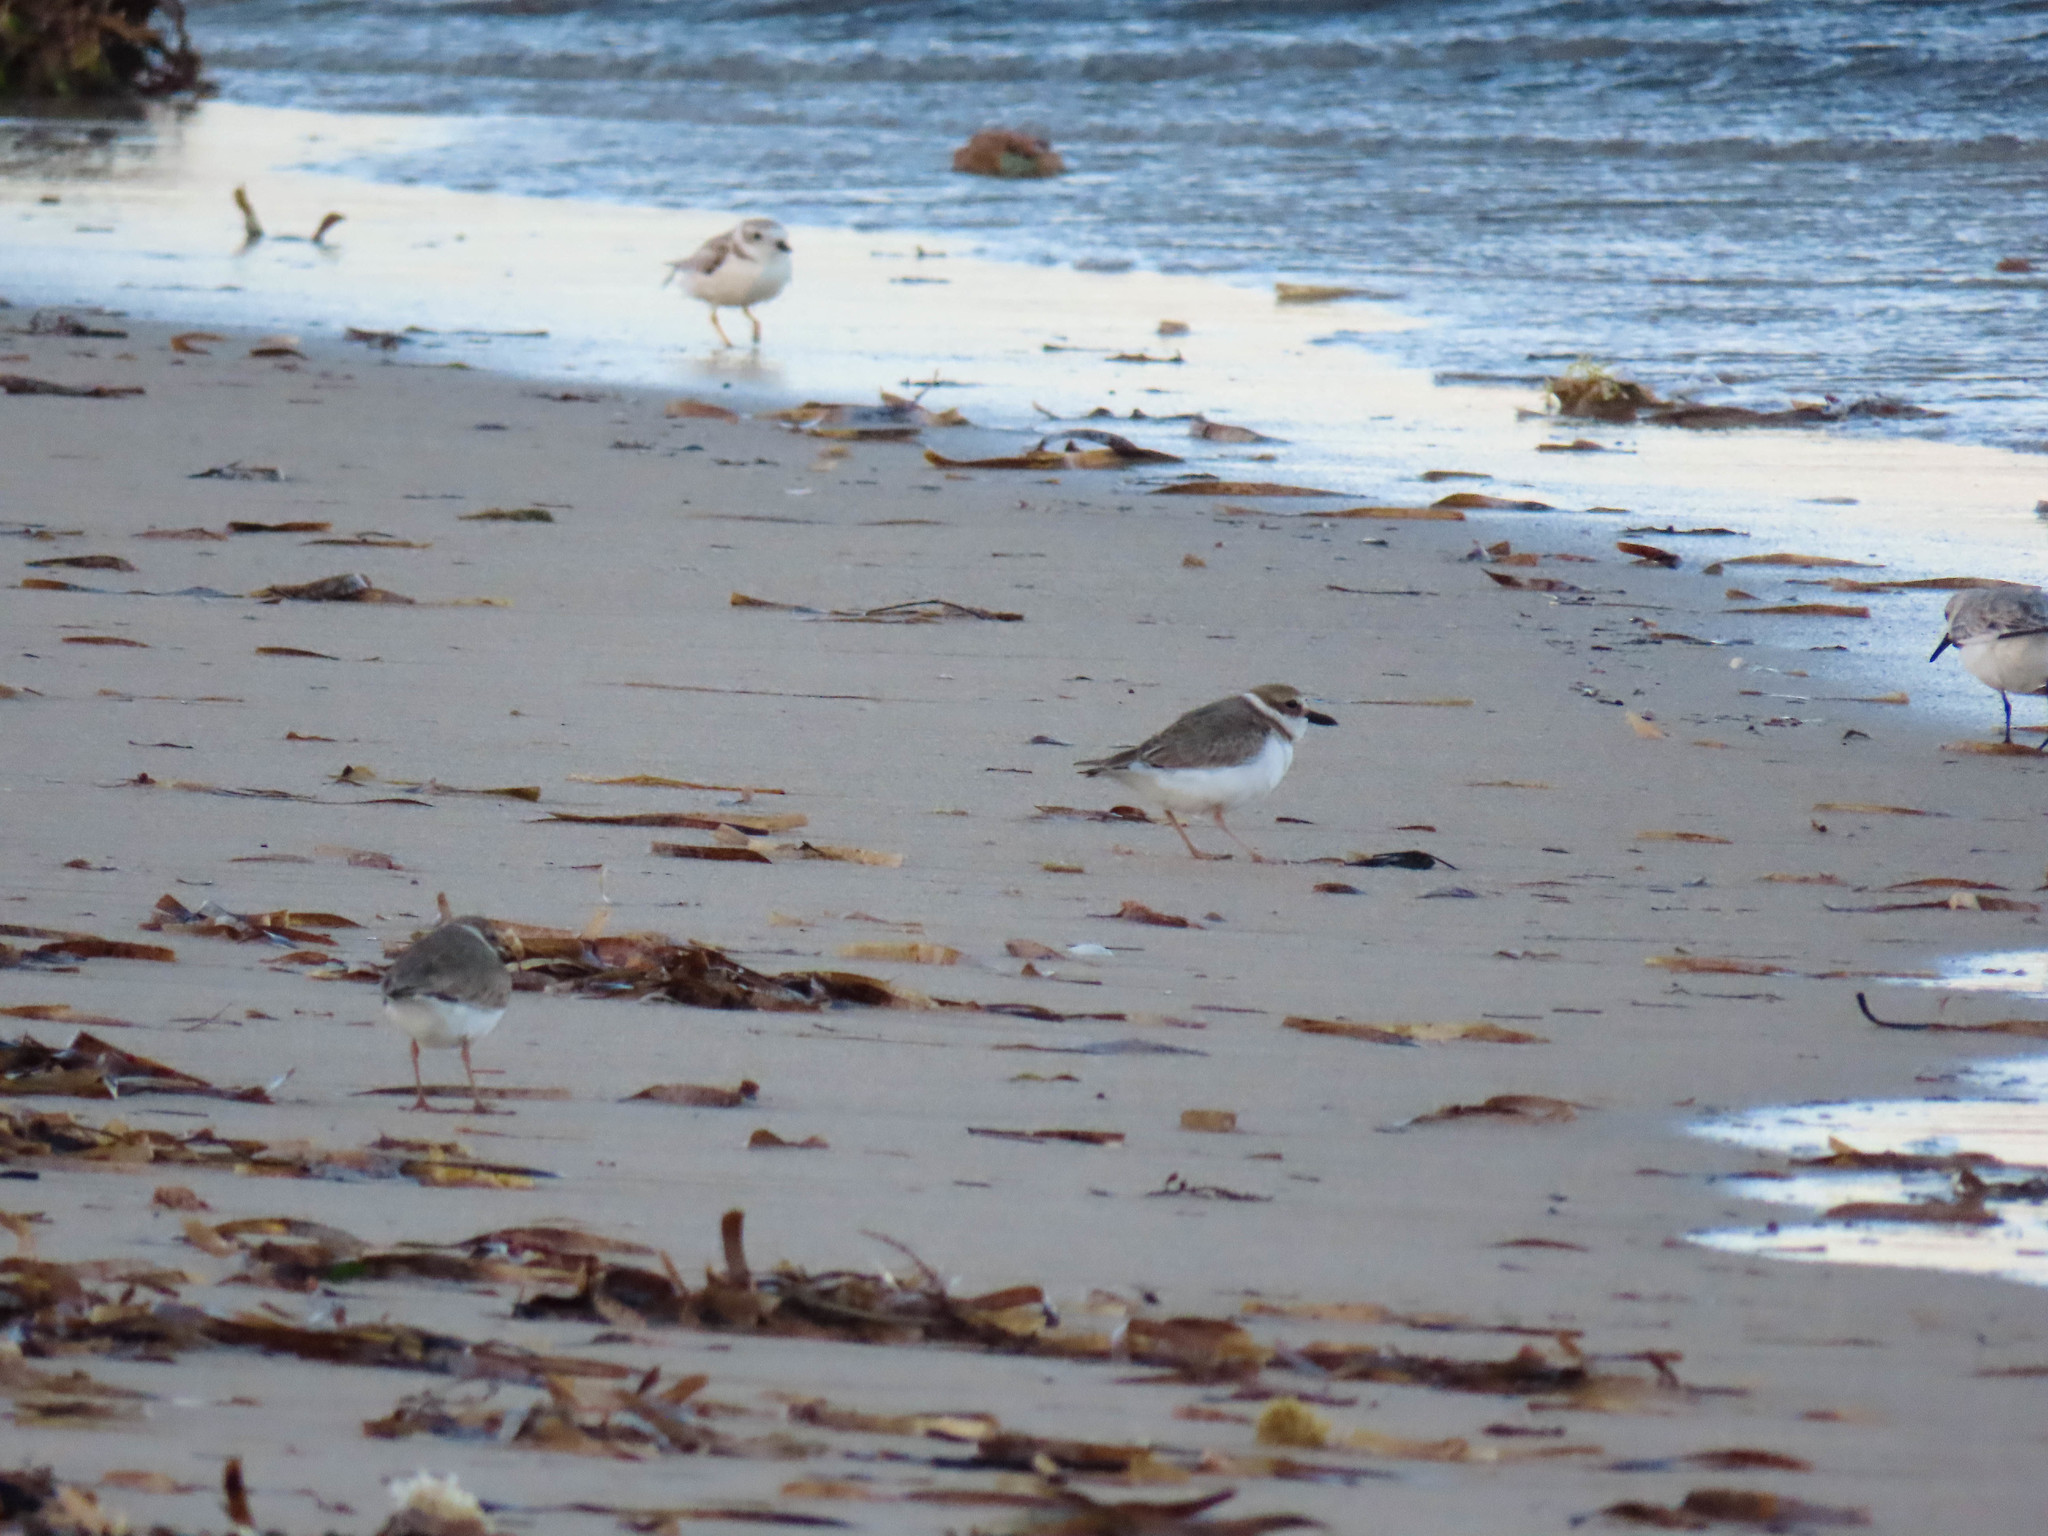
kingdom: Animalia
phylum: Chordata
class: Aves
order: Charadriiformes
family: Charadriidae
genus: Anarhynchus
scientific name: Anarhynchus
